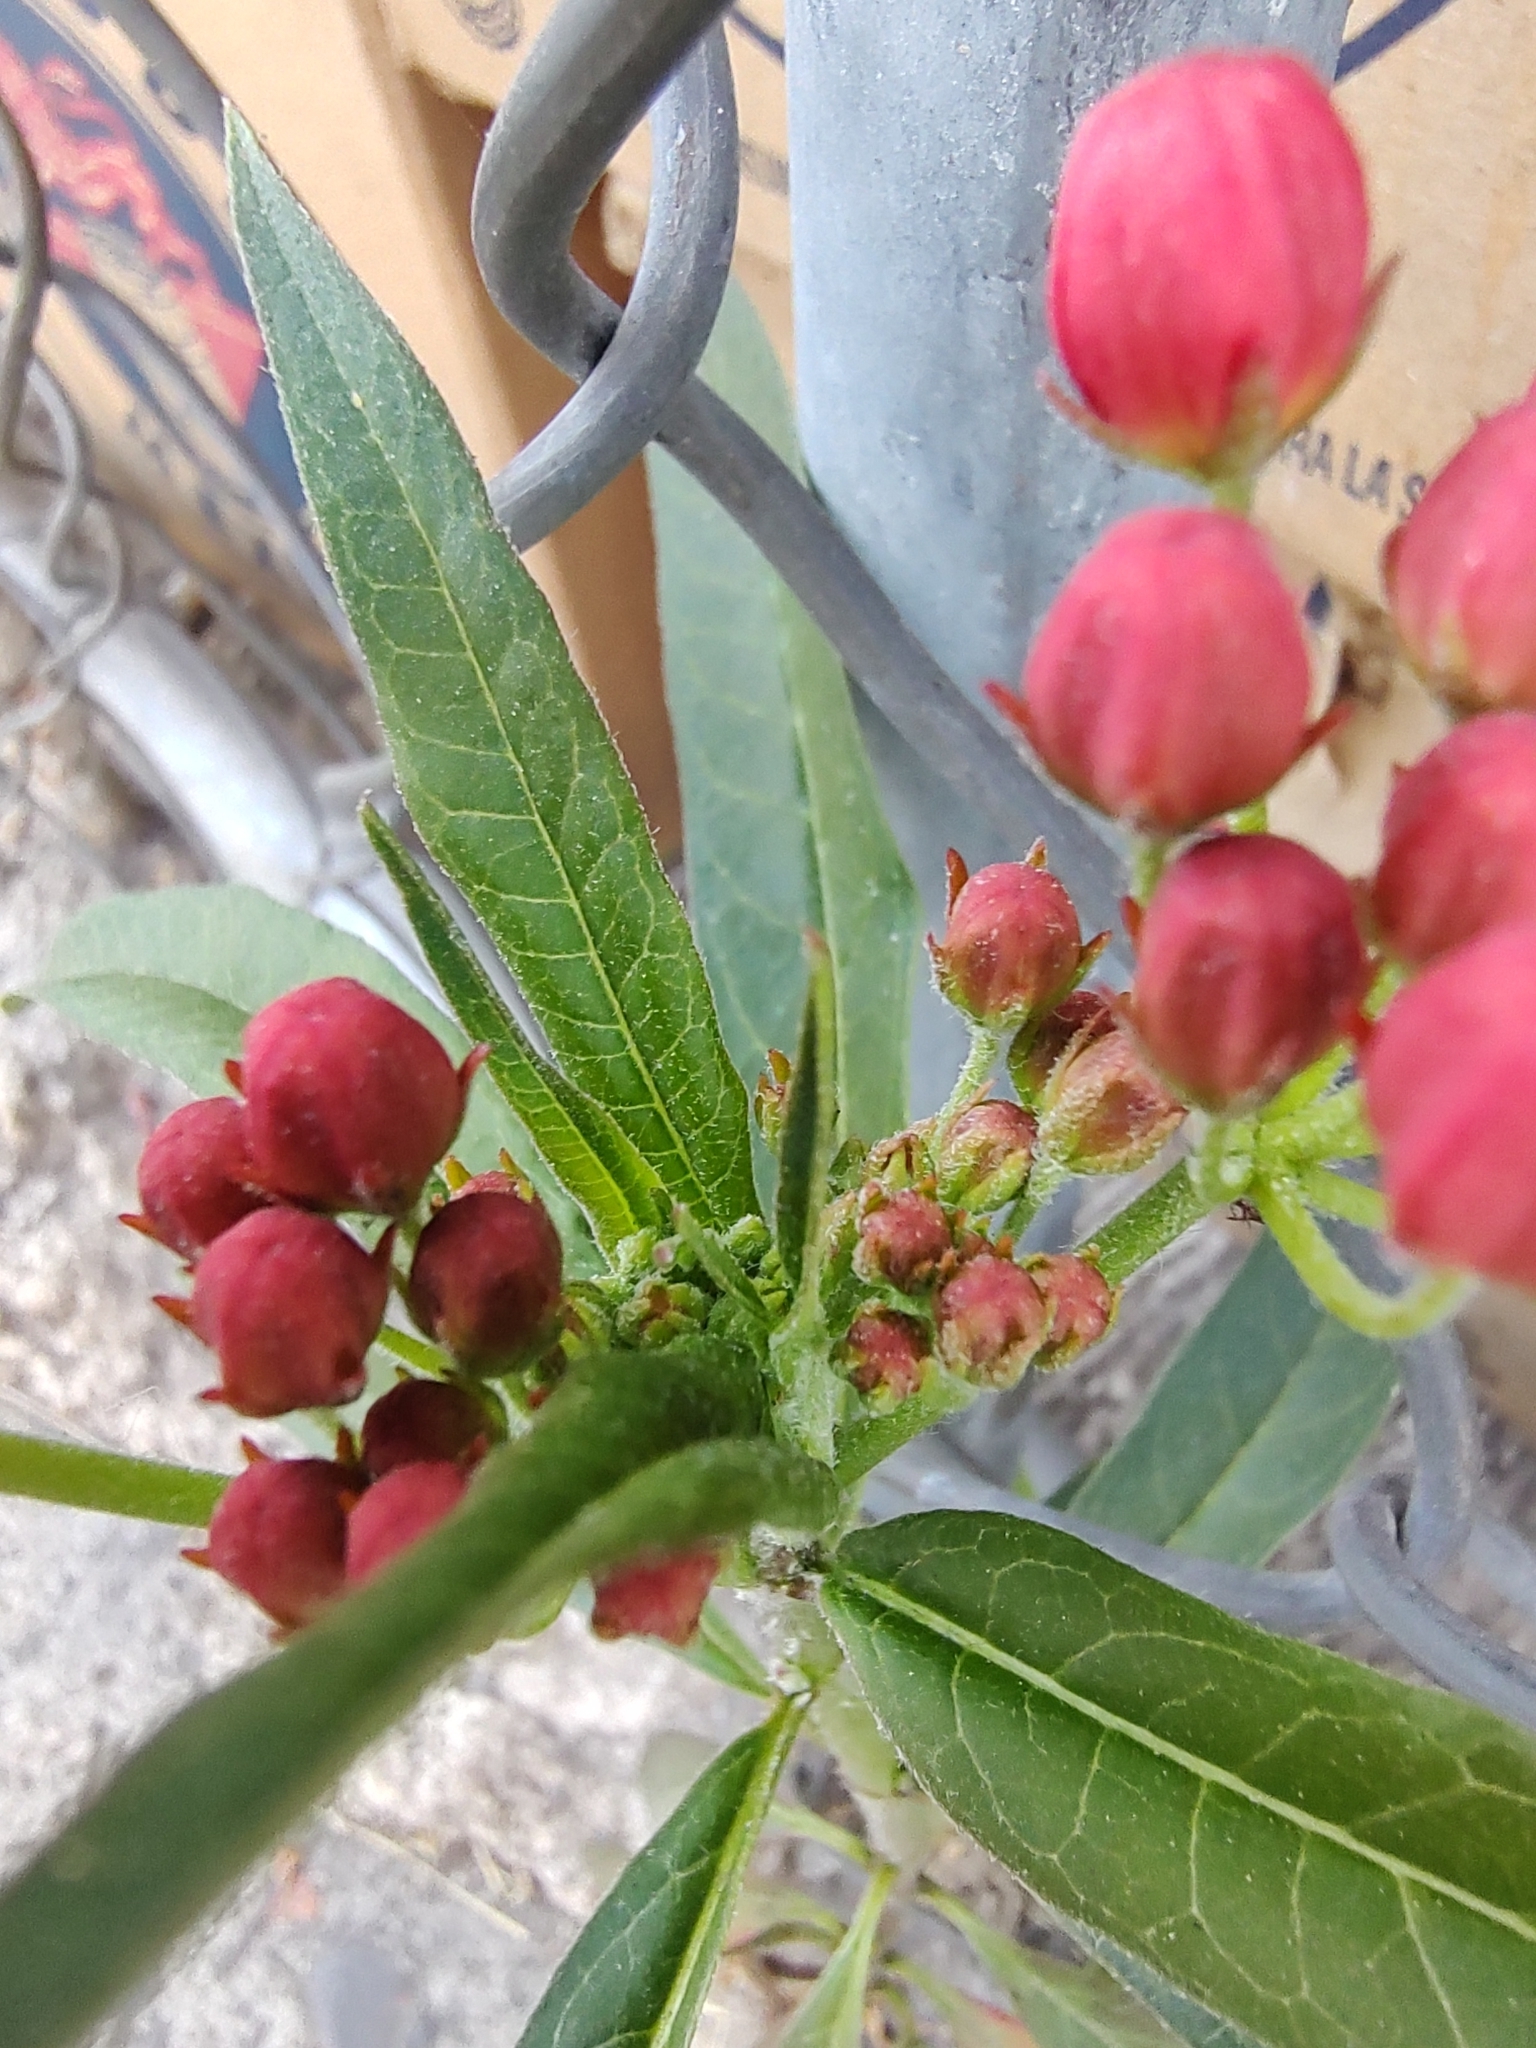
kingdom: Plantae
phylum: Tracheophyta
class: Magnoliopsida
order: Gentianales
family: Apocynaceae
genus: Asclepias
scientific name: Asclepias curassavica
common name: Bloodflower
